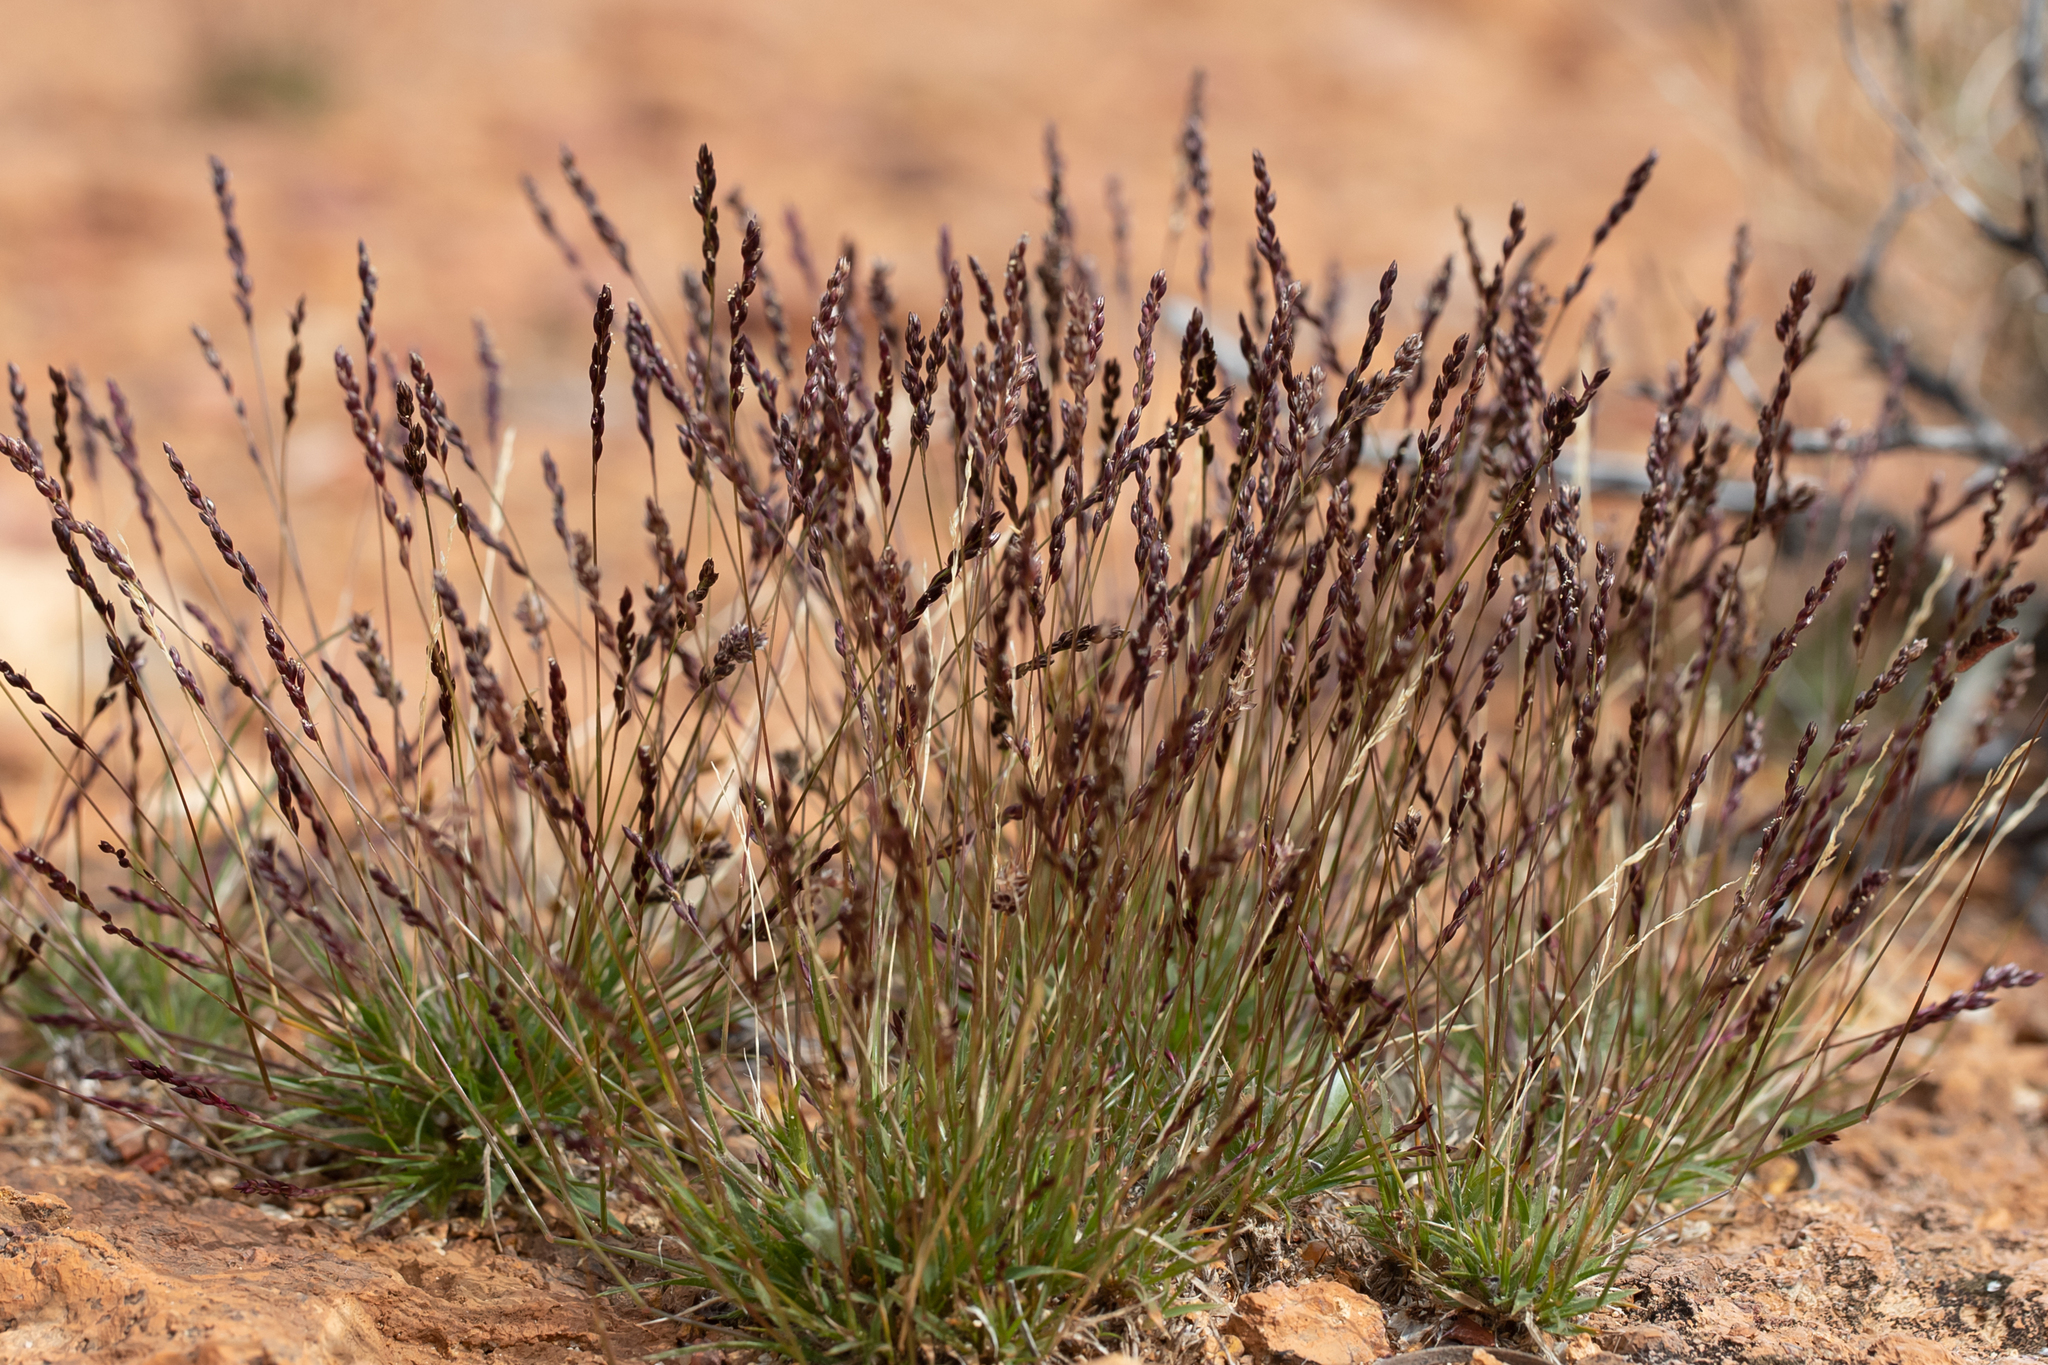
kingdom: Plantae
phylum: Tracheophyta
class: Liliopsida
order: Poales
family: Poaceae
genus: Eriachne
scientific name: Eriachne pulchella
